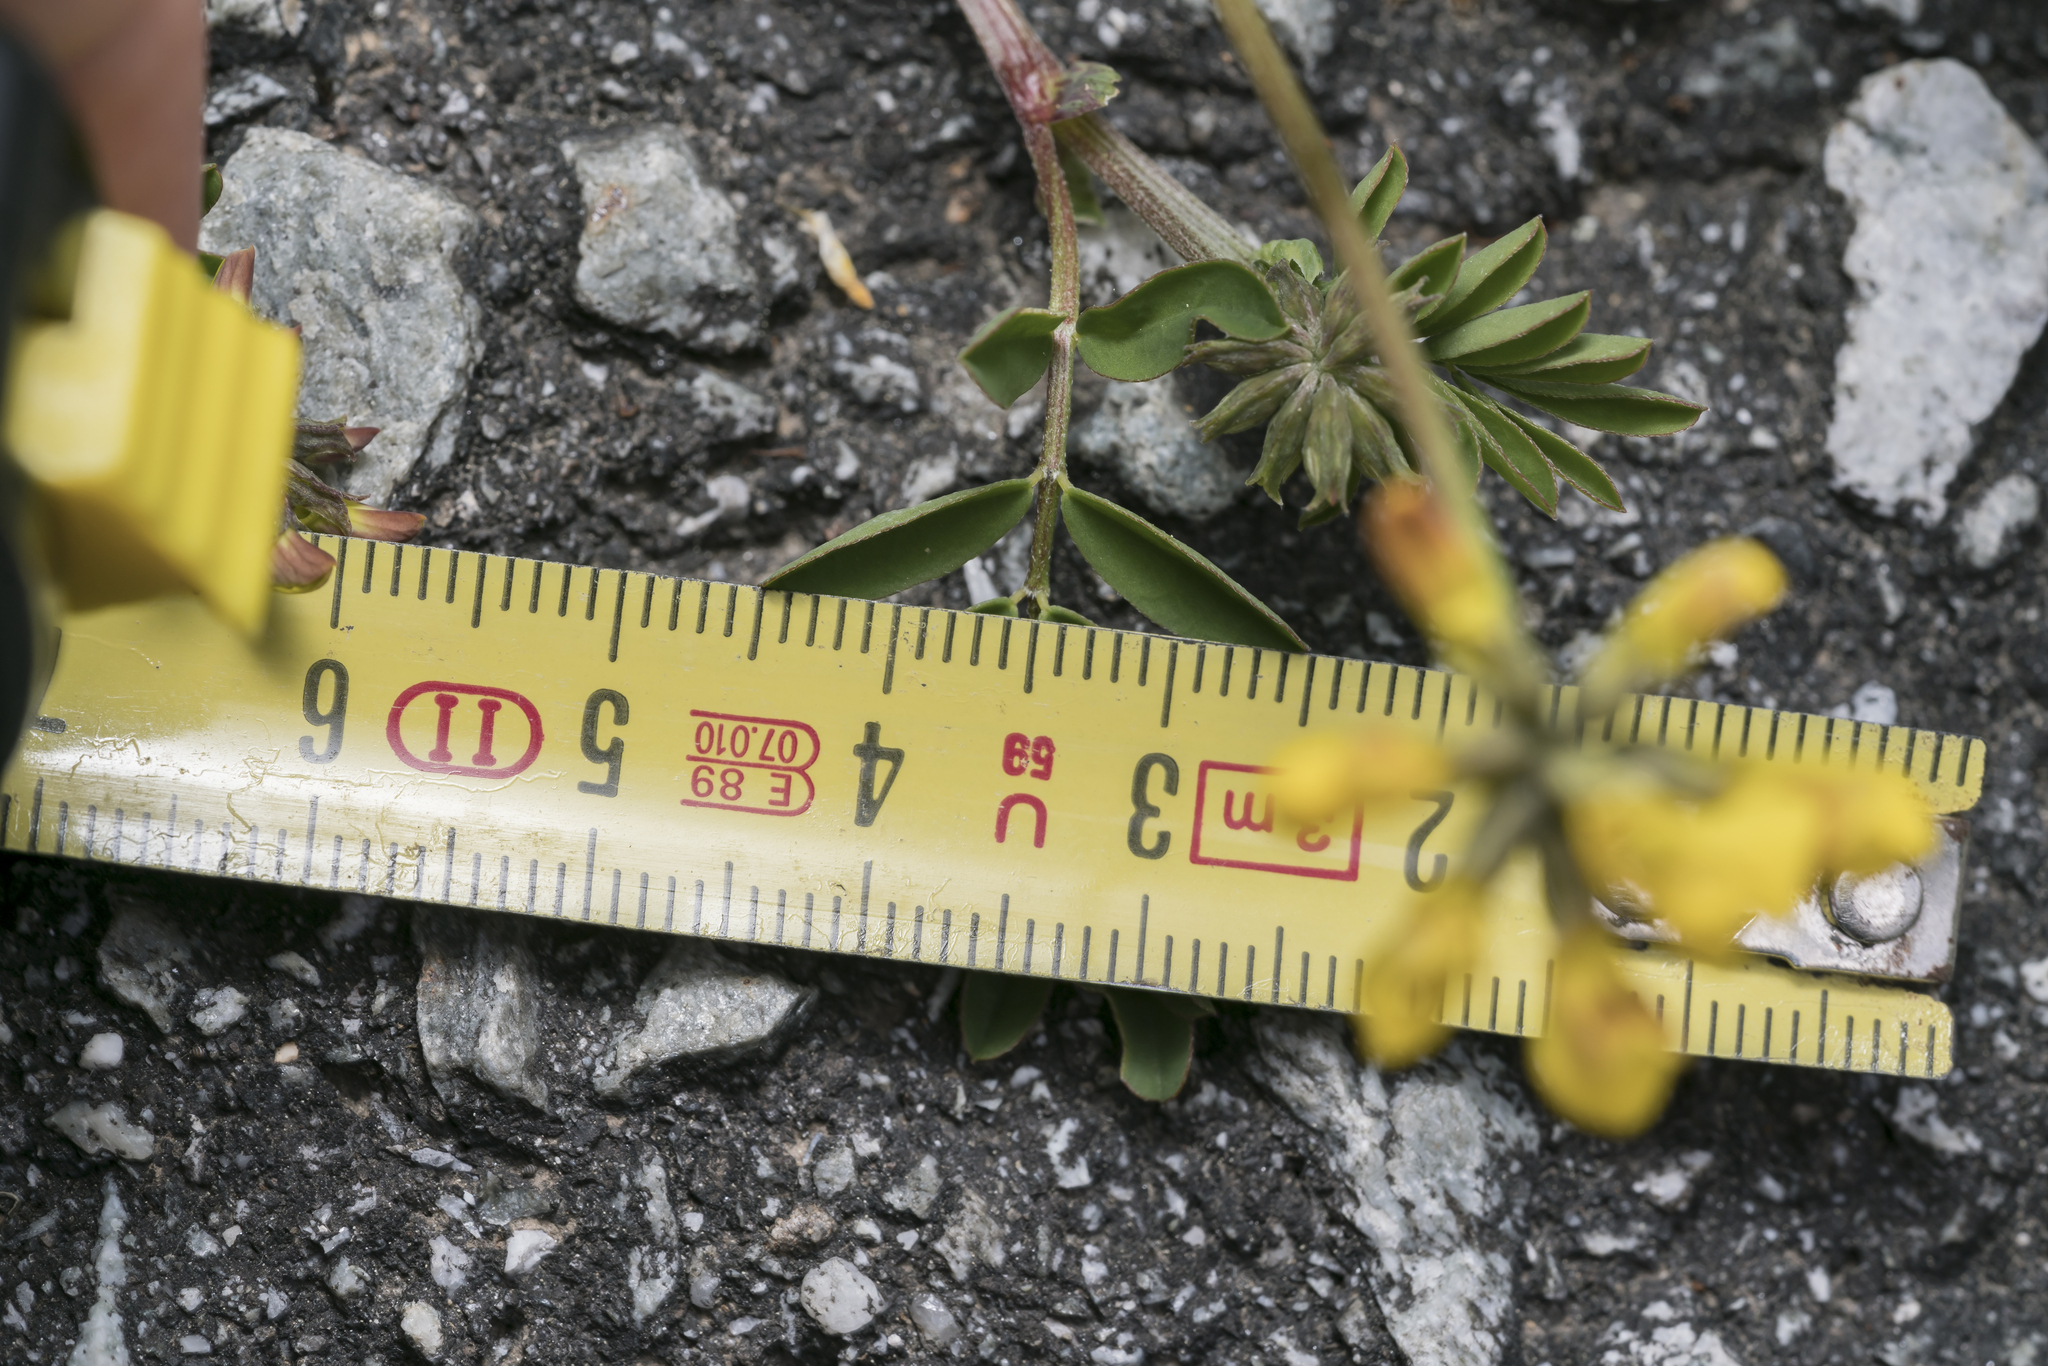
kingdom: Plantae
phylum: Tracheophyta
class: Magnoliopsida
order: Fabales
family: Fabaceae
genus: Hippocrepis
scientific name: Hippocrepis comosa
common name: Horseshoe vetch
